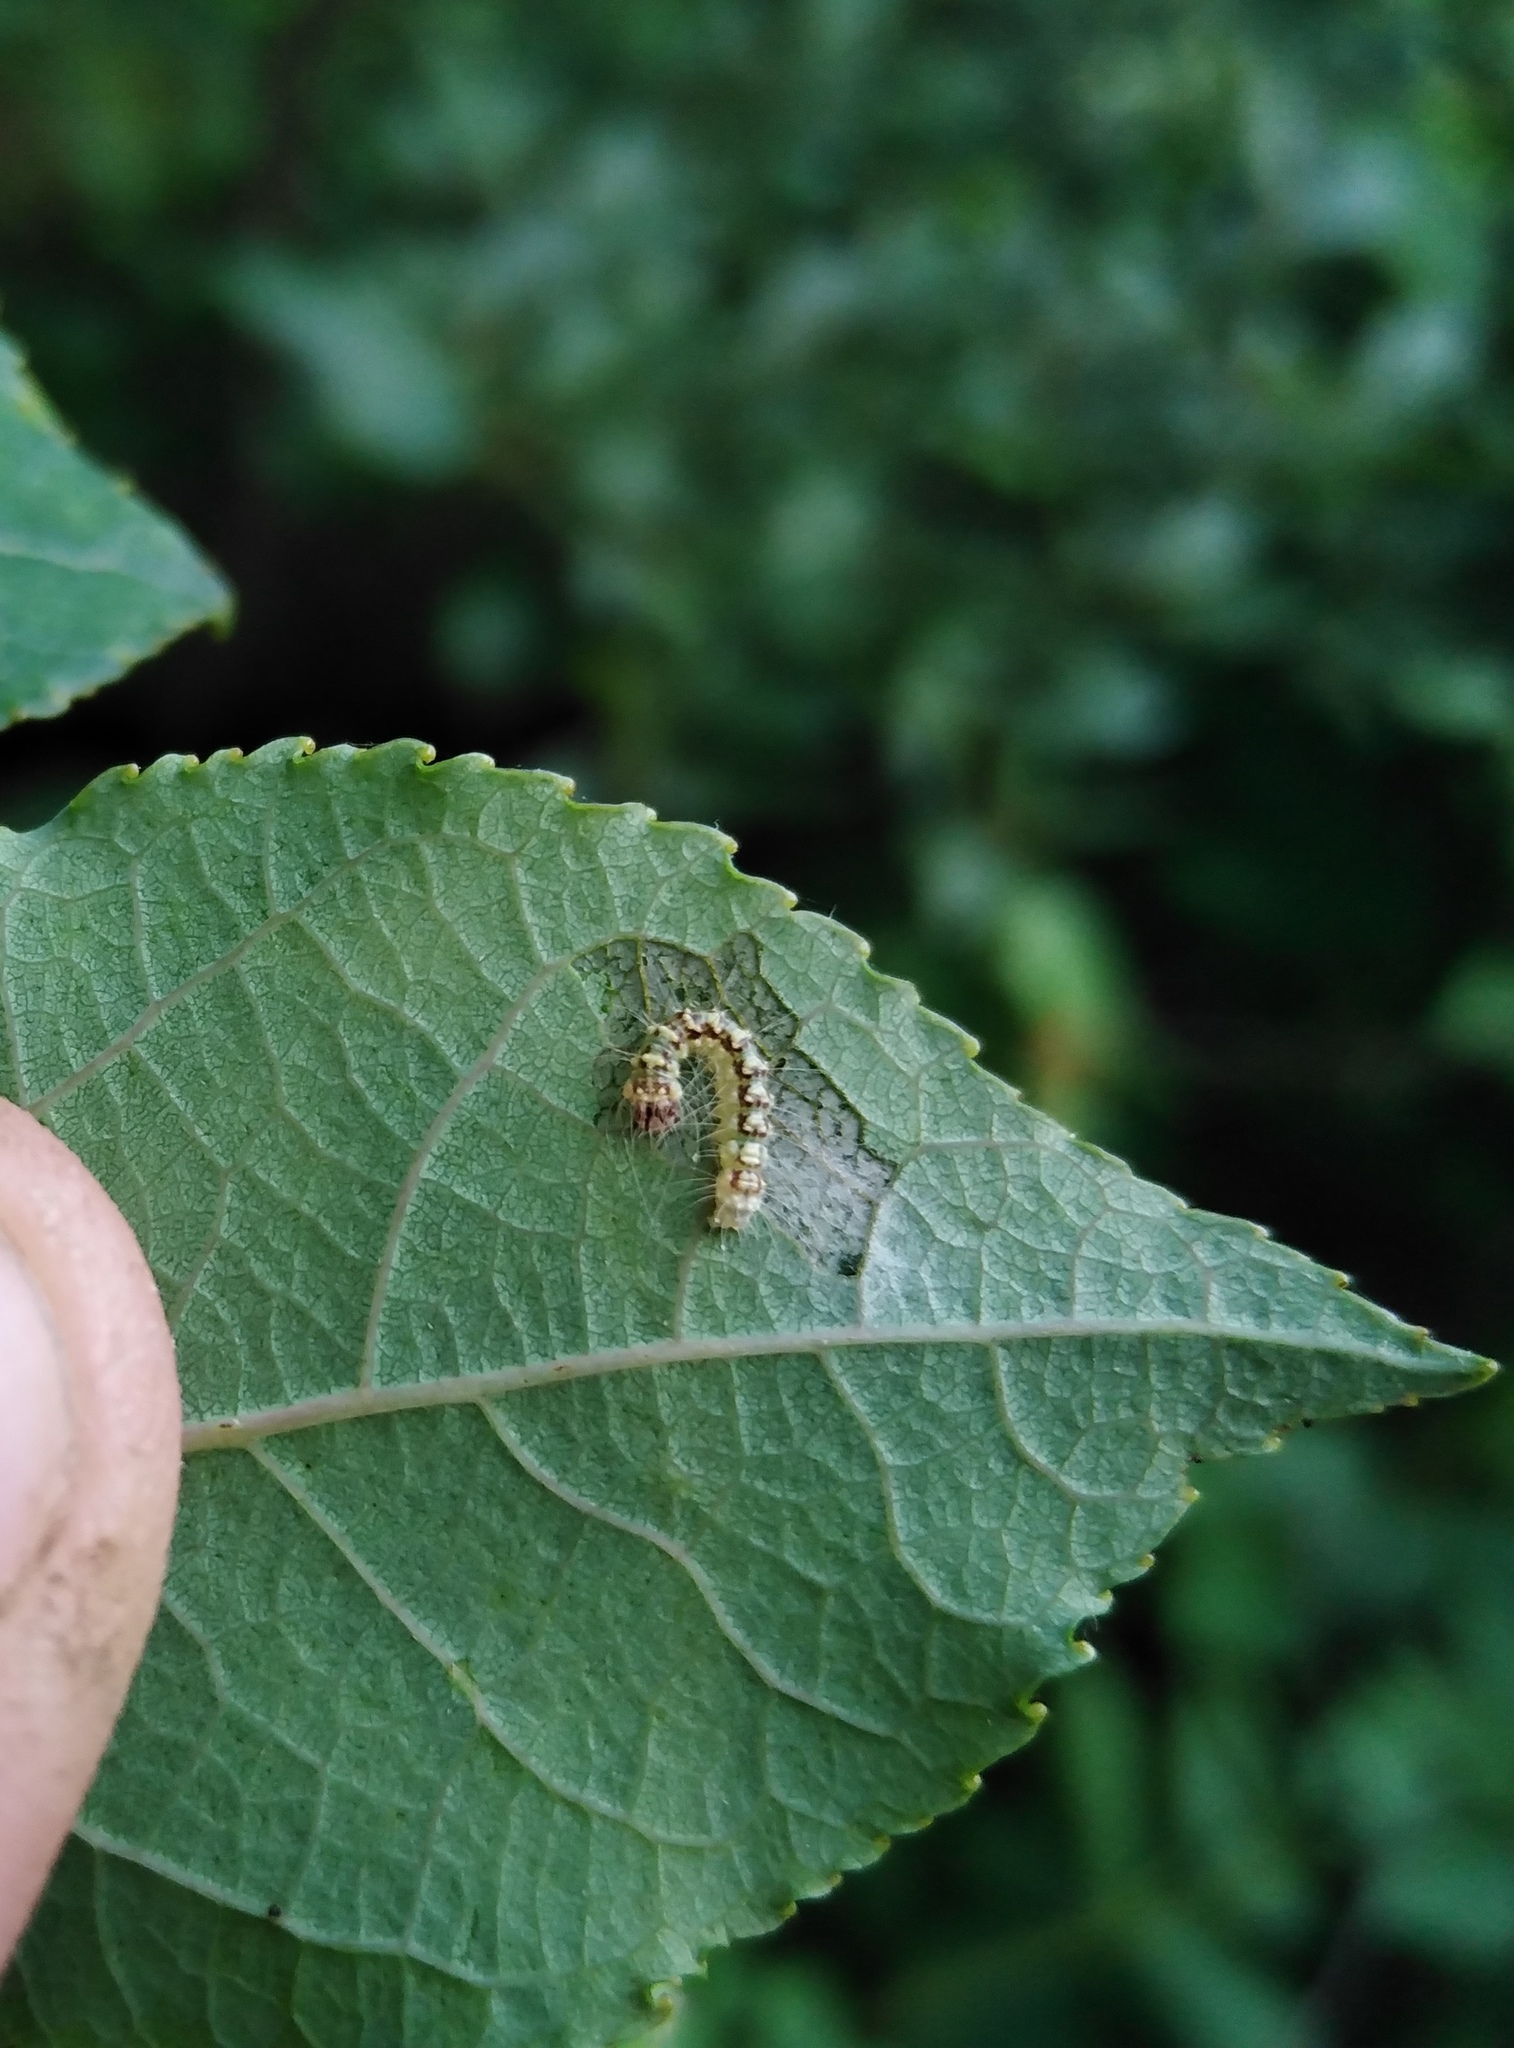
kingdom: Animalia
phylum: Arthropoda
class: Insecta
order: Lepidoptera
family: Noctuidae
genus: Acronicta
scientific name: Acronicta megacephala
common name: Poplar grey
